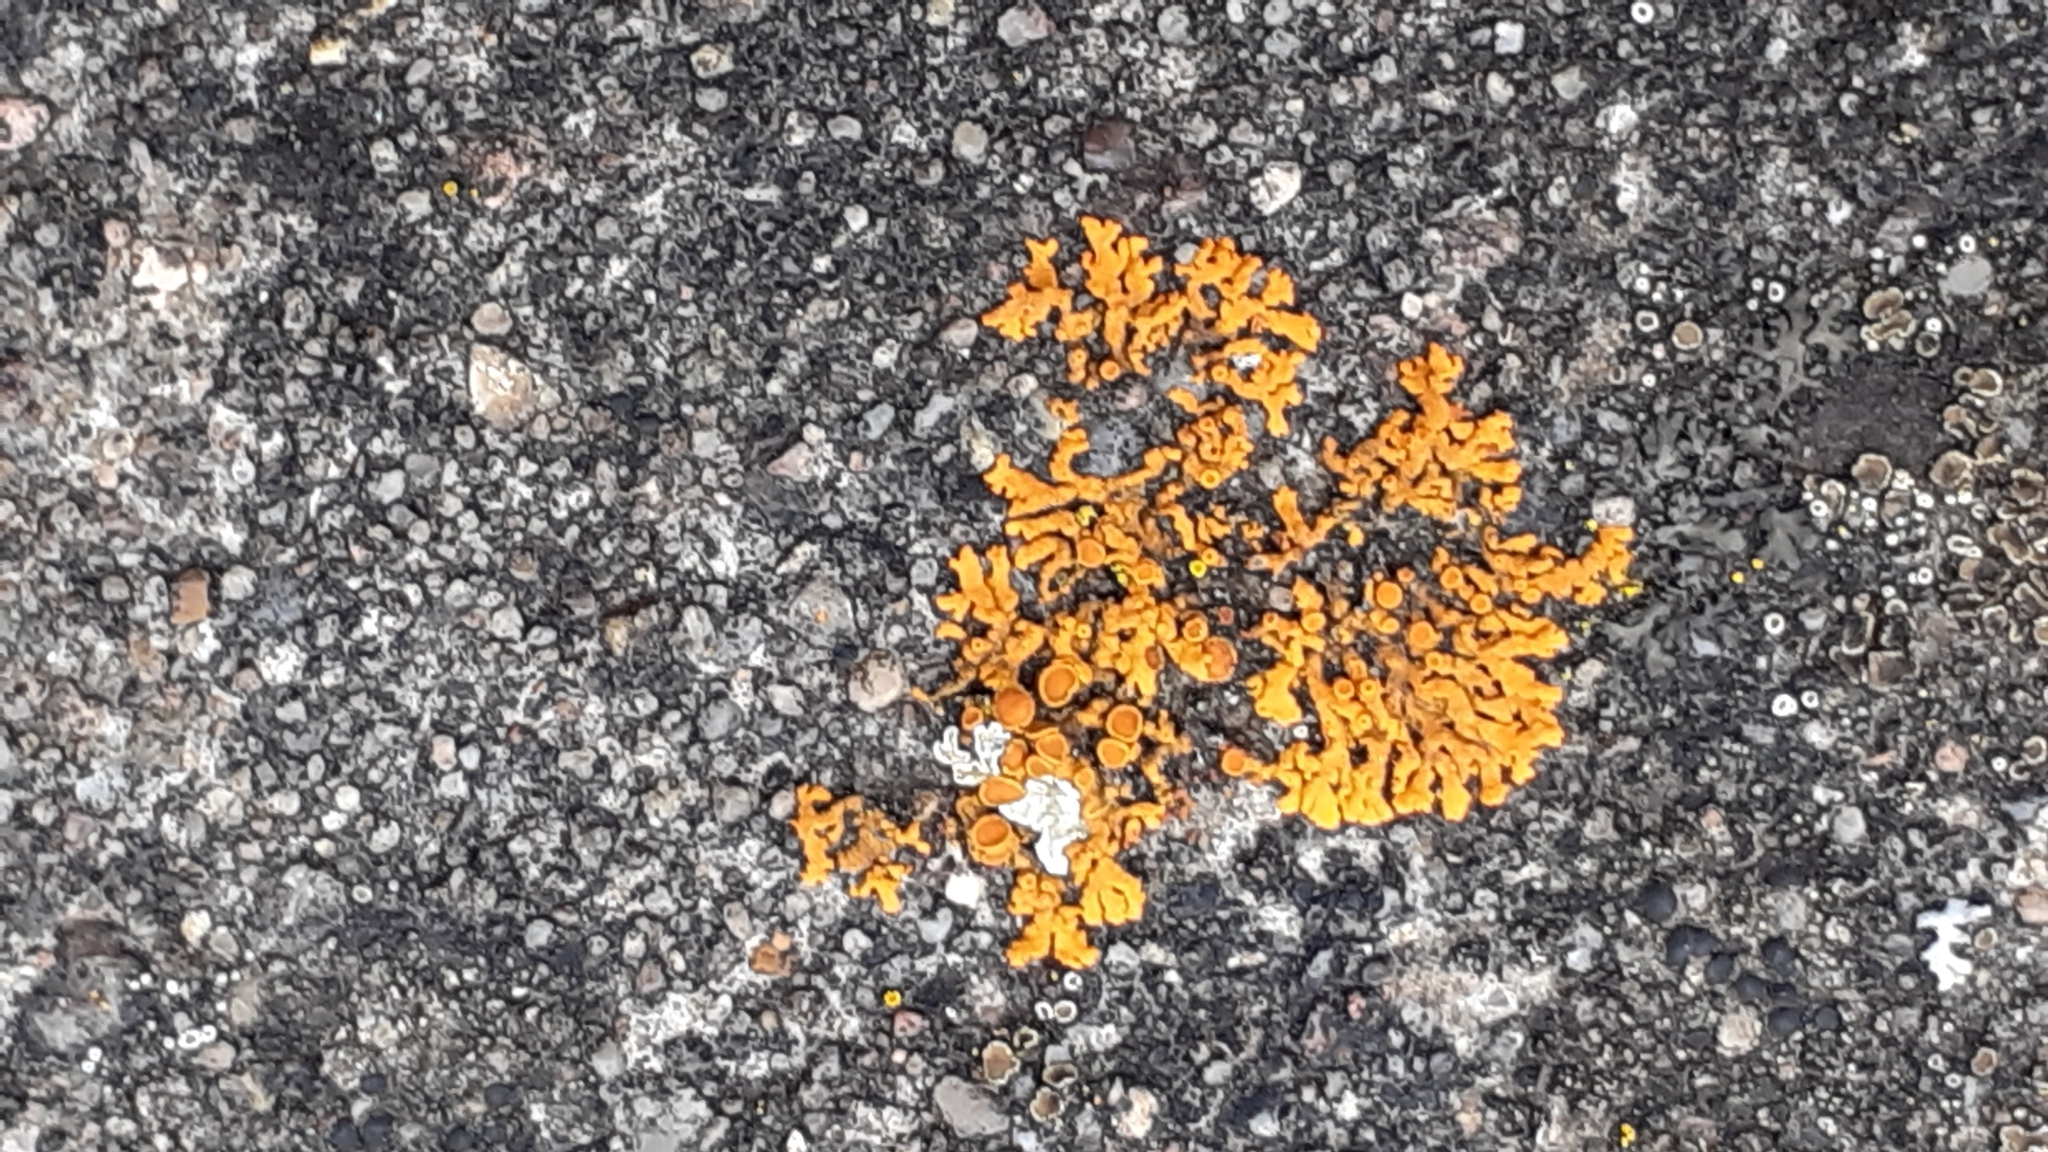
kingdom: Fungi
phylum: Ascomycota
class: Lecanoromycetes
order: Teloschistales
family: Teloschistaceae
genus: Xanthoria
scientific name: Xanthoria elegans
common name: Elegant sunburst lichen
